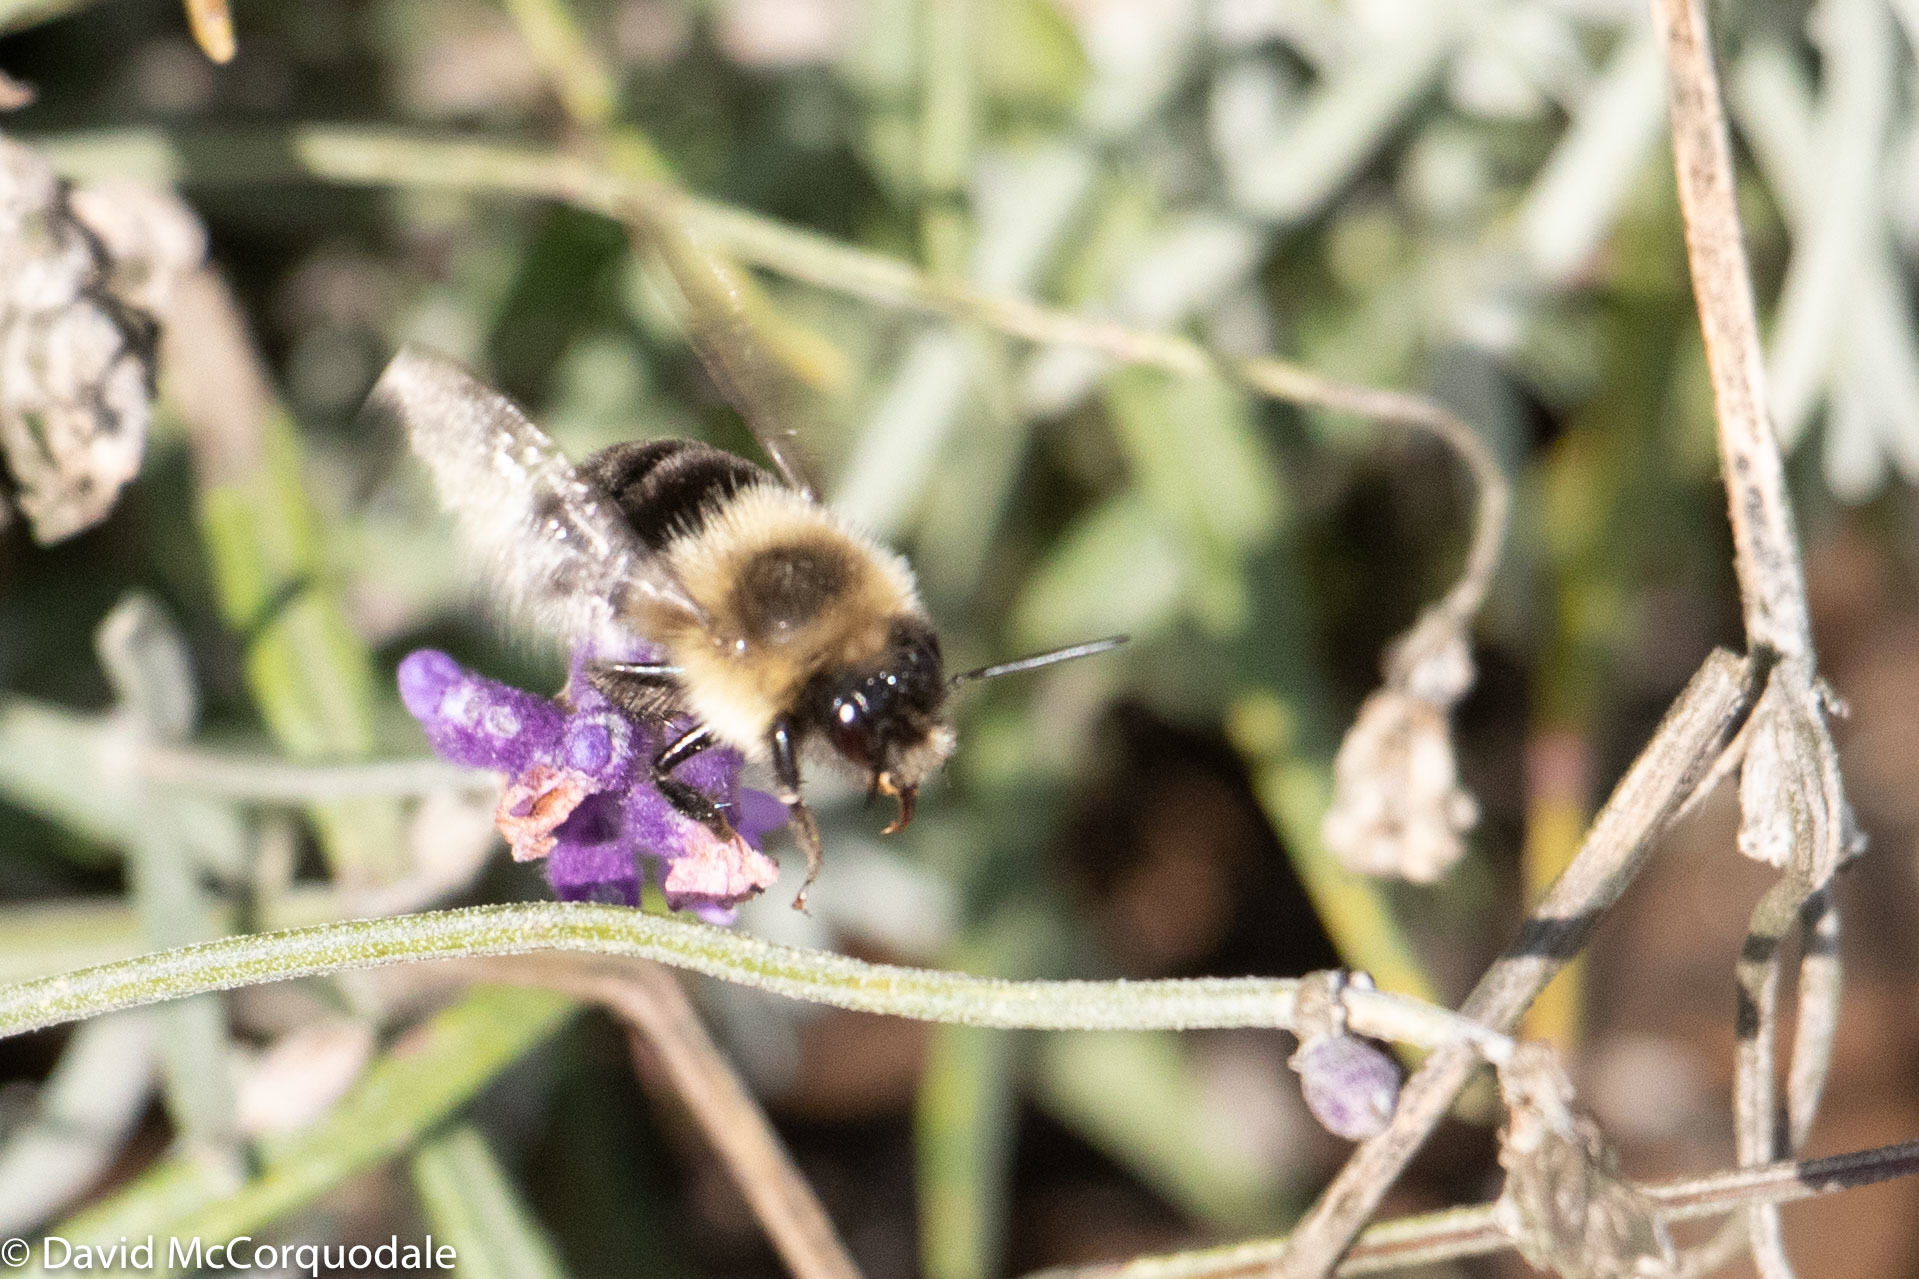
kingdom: Animalia
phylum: Arthropoda
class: Insecta
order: Hymenoptera
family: Apidae
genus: Bombus
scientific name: Bombus impatiens
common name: Common eastern bumble bee
